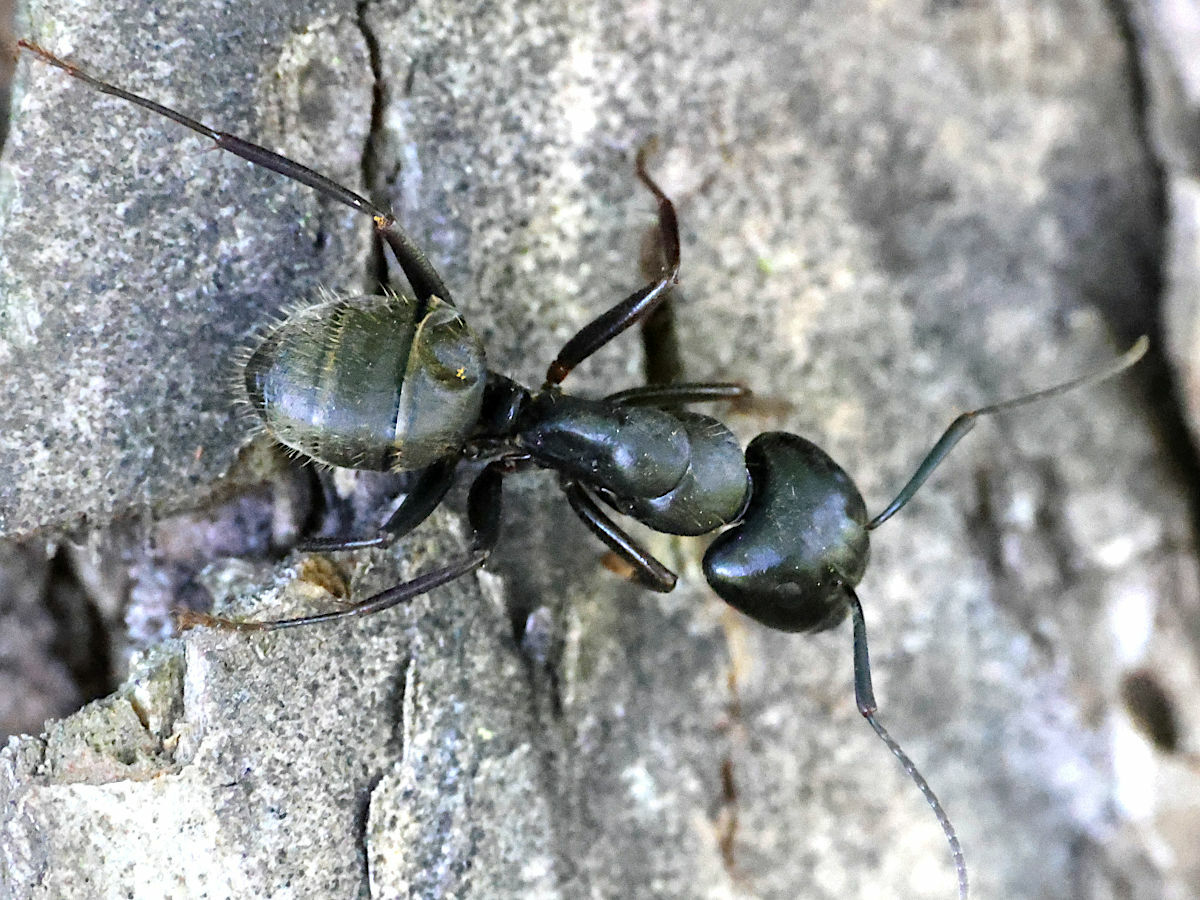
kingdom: Animalia
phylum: Arthropoda
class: Insecta
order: Hymenoptera
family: Formicidae
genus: Camponotus
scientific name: Camponotus pennsylvanicus
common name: Black carpenter ant
